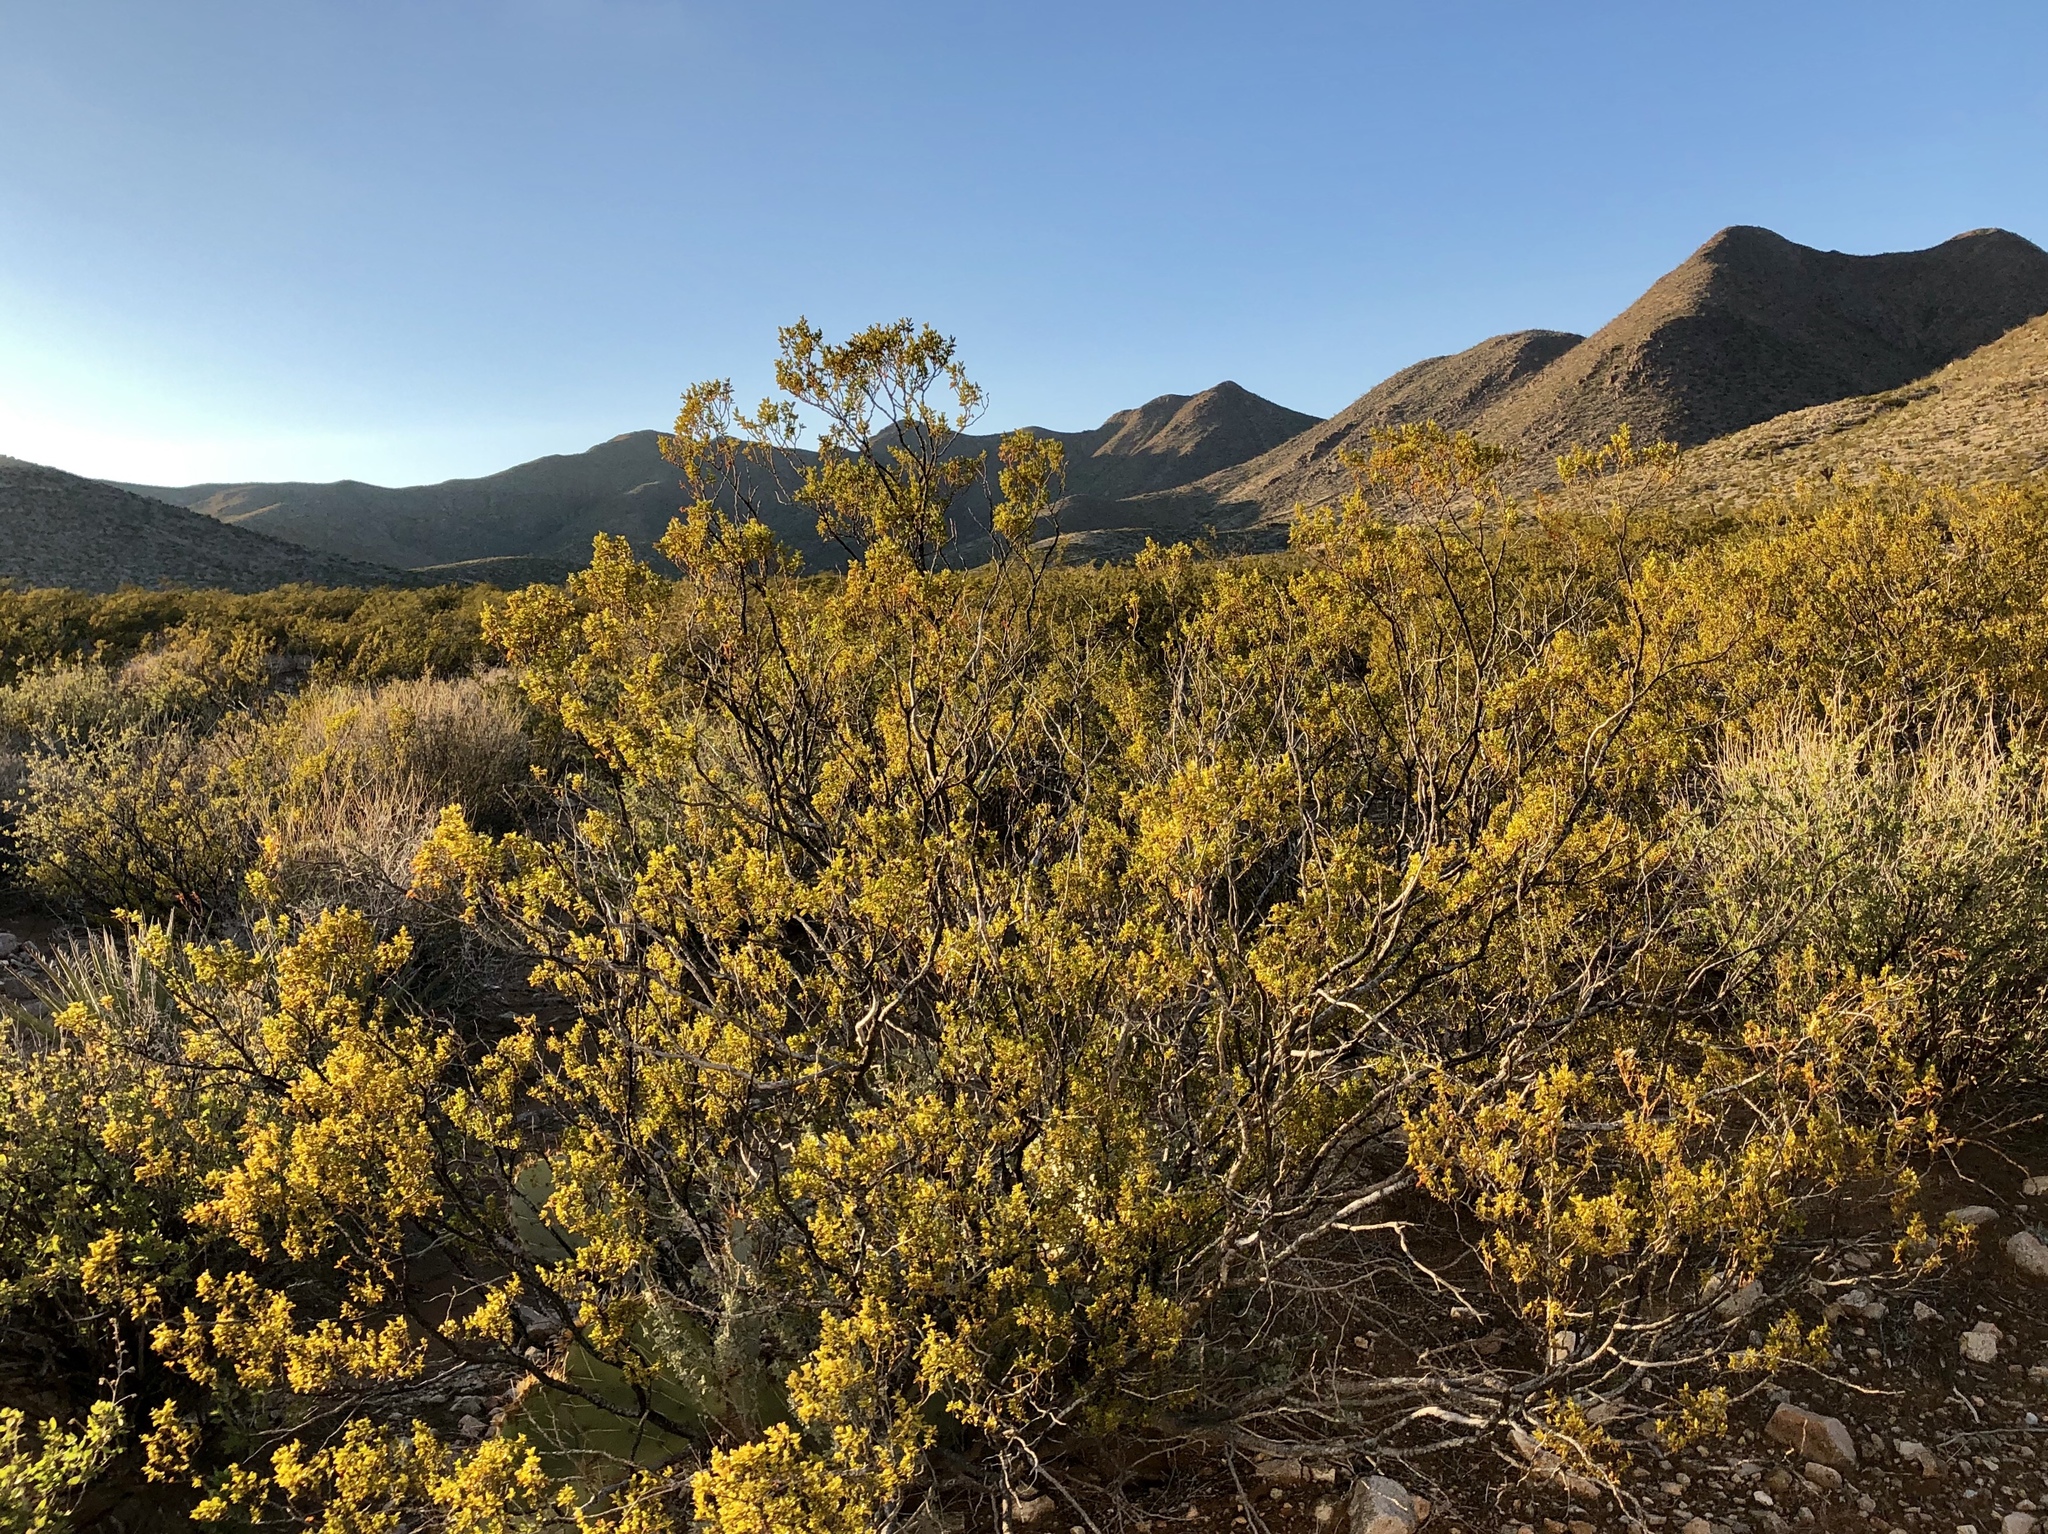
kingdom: Plantae
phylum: Tracheophyta
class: Magnoliopsida
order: Zygophyllales
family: Zygophyllaceae
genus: Larrea
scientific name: Larrea tridentata
